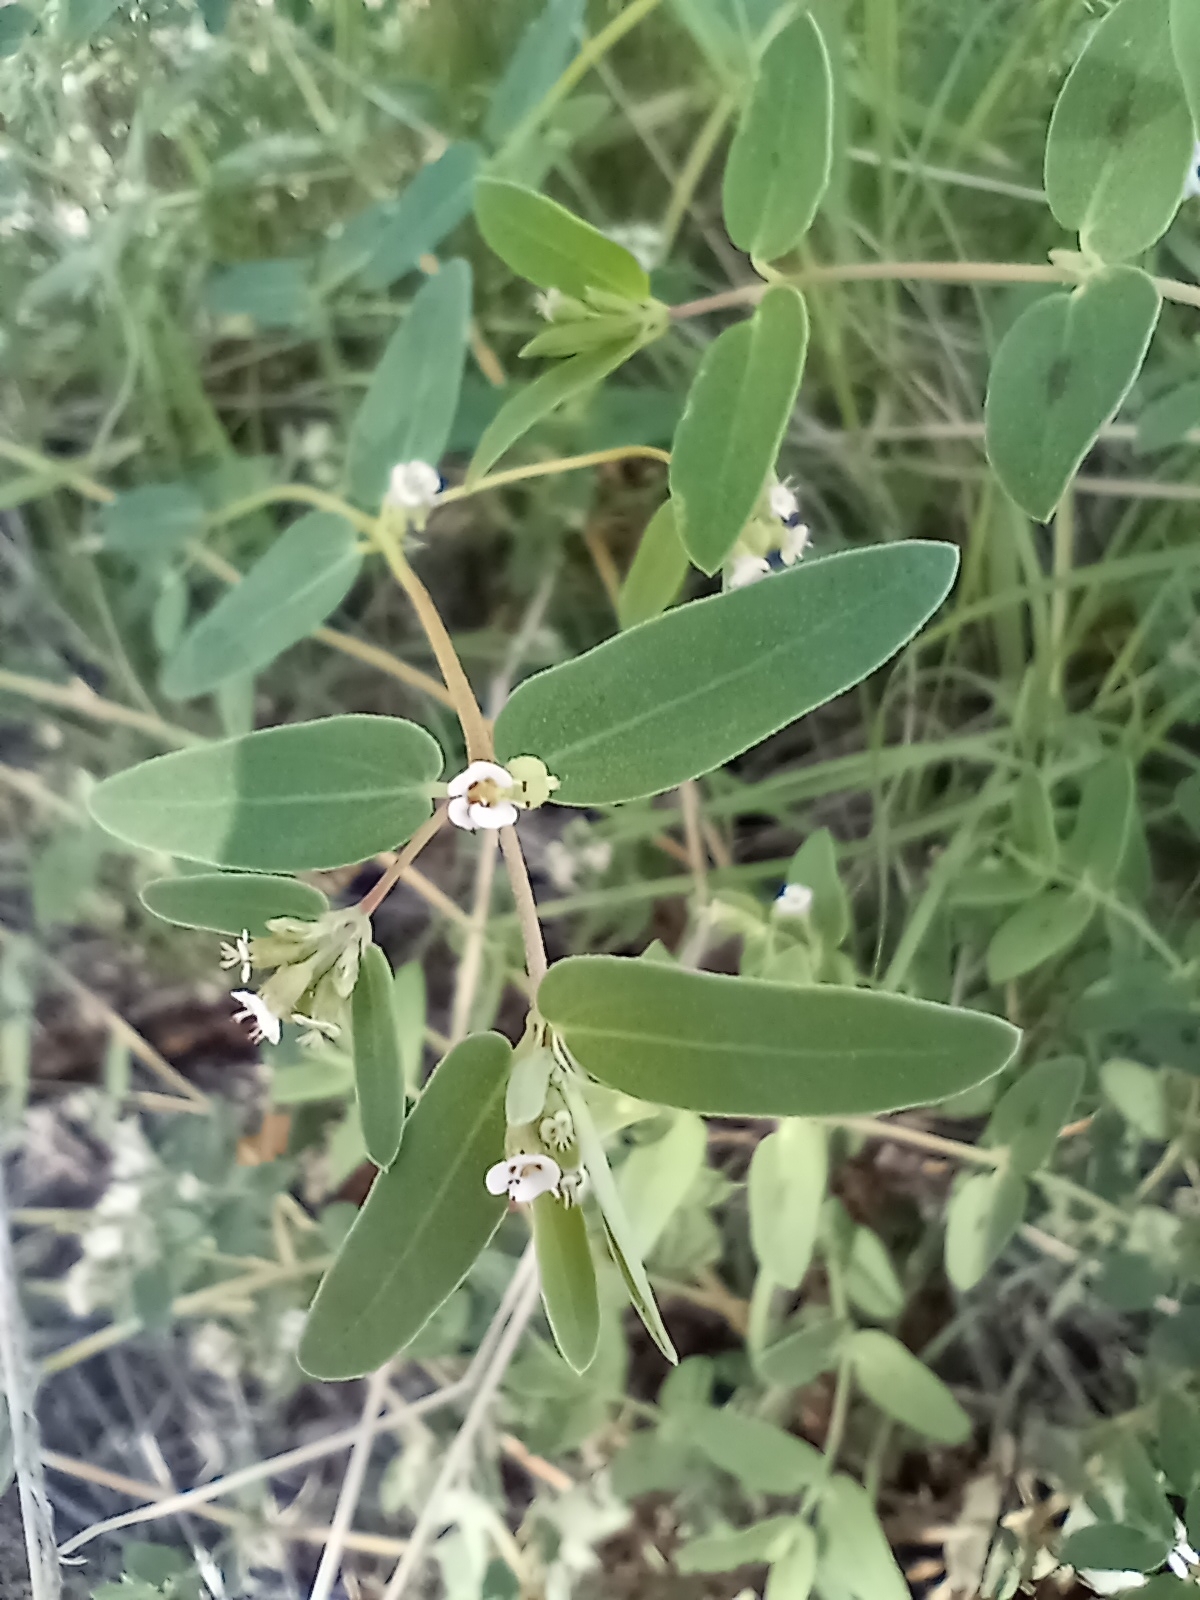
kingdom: Plantae
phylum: Tracheophyta
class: Magnoliopsida
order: Malpighiales
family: Euphorbiaceae
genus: Euphorbia
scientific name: Euphorbia capitellata
